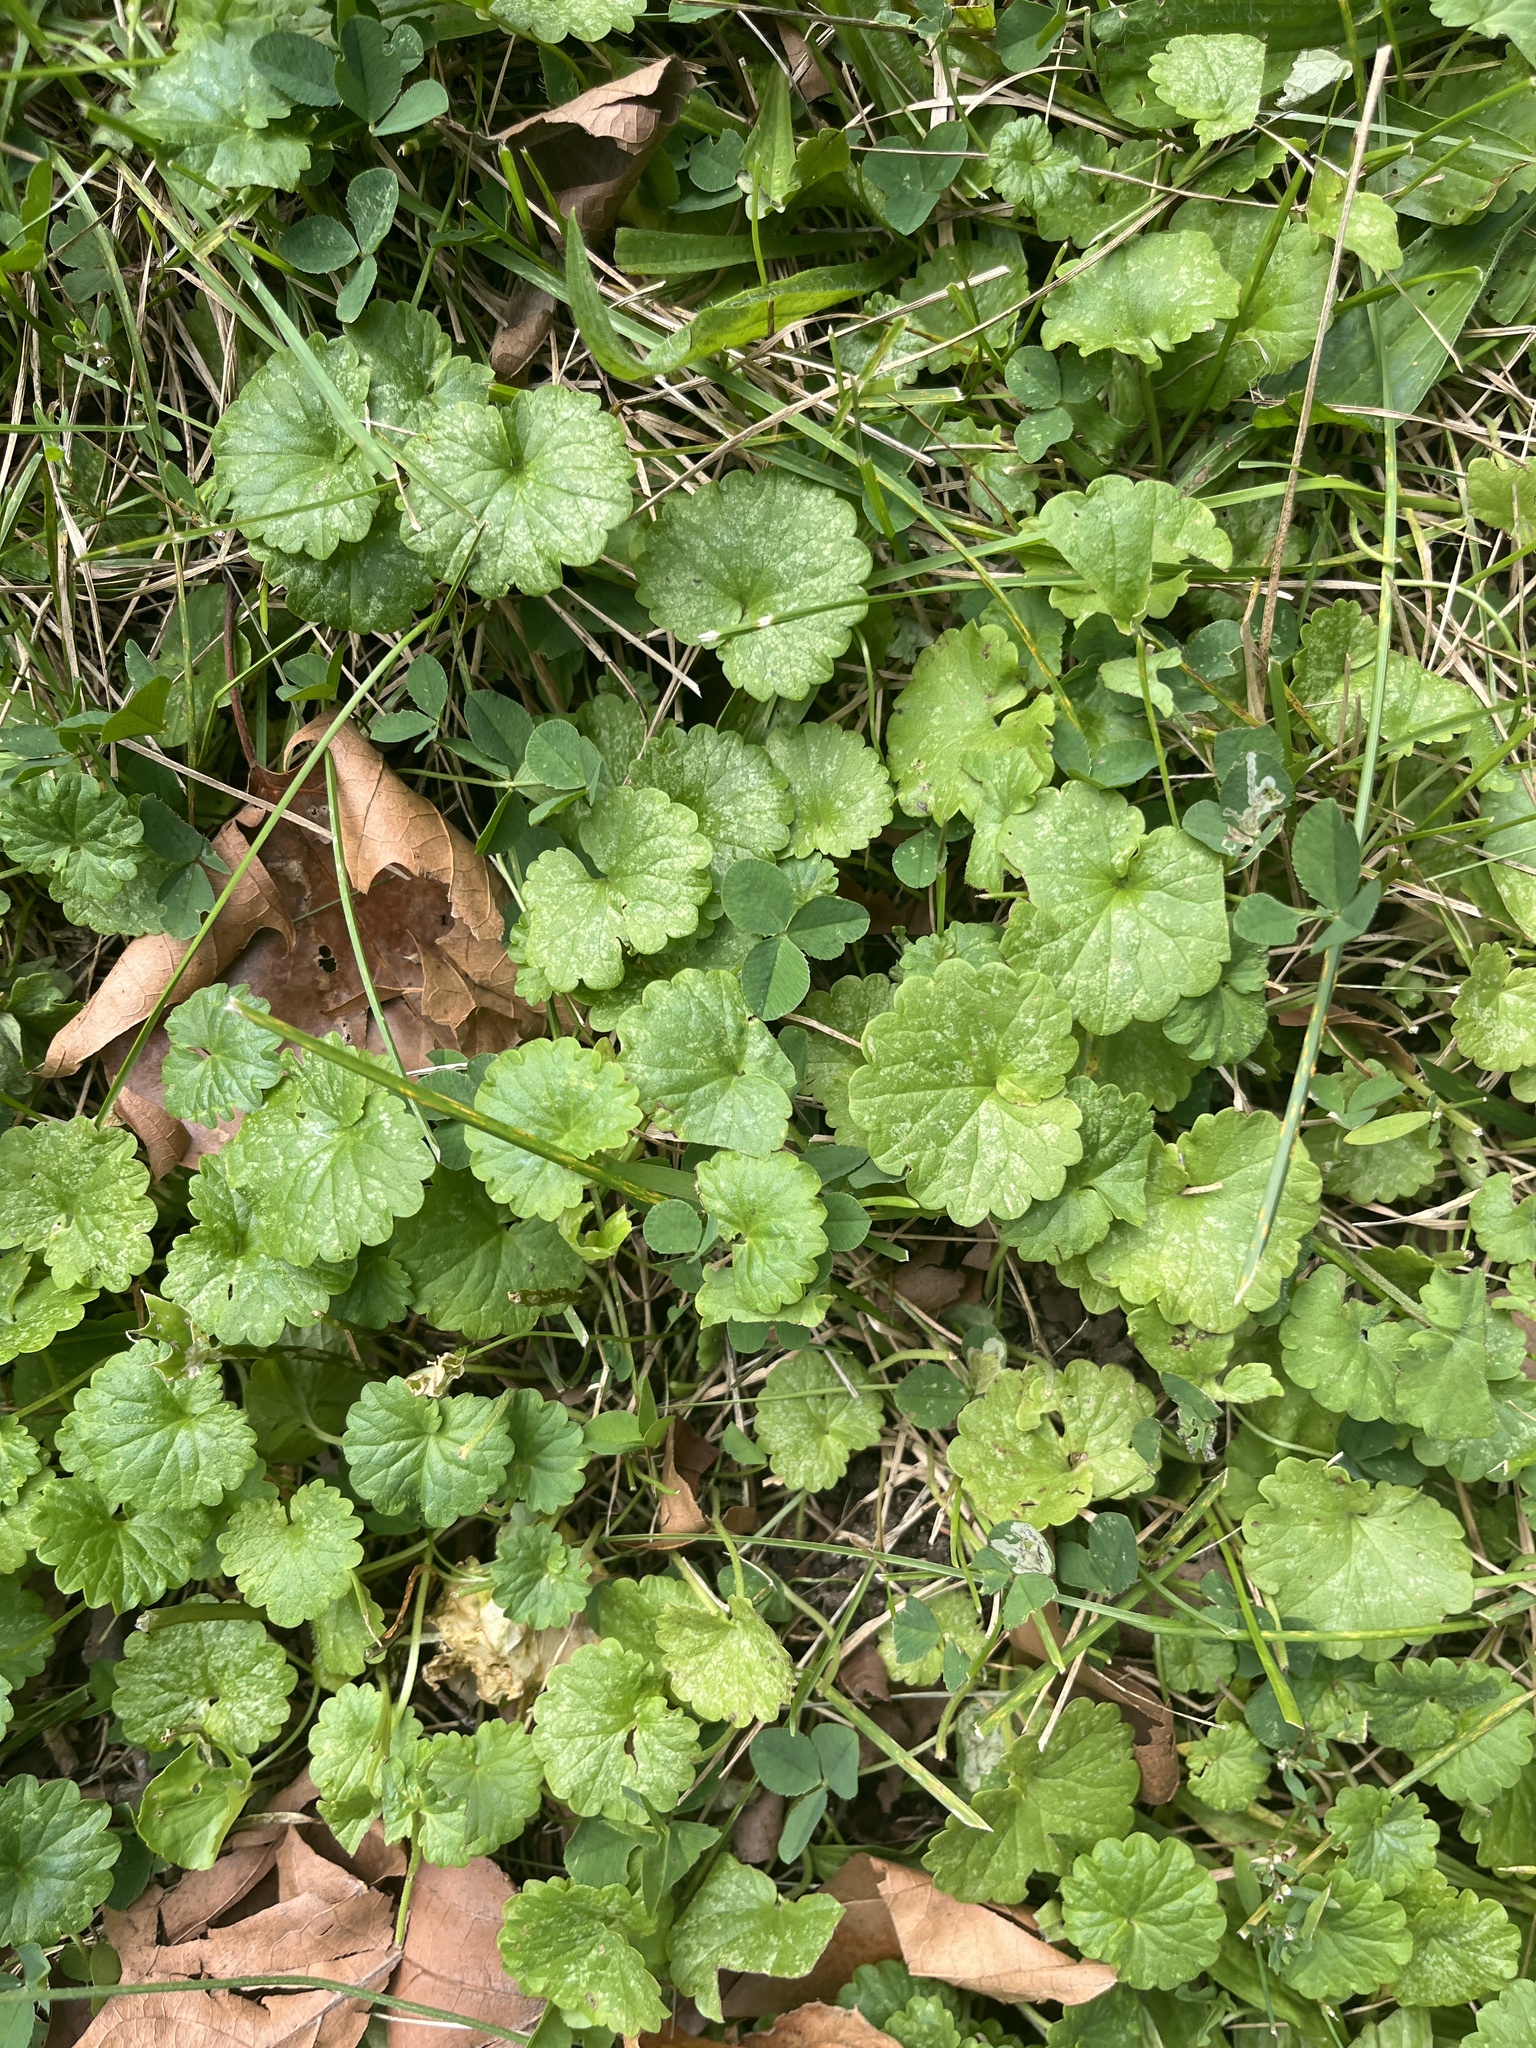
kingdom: Plantae
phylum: Tracheophyta
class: Magnoliopsida
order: Lamiales
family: Lamiaceae
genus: Glechoma
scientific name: Glechoma hederacea
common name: Ground ivy
